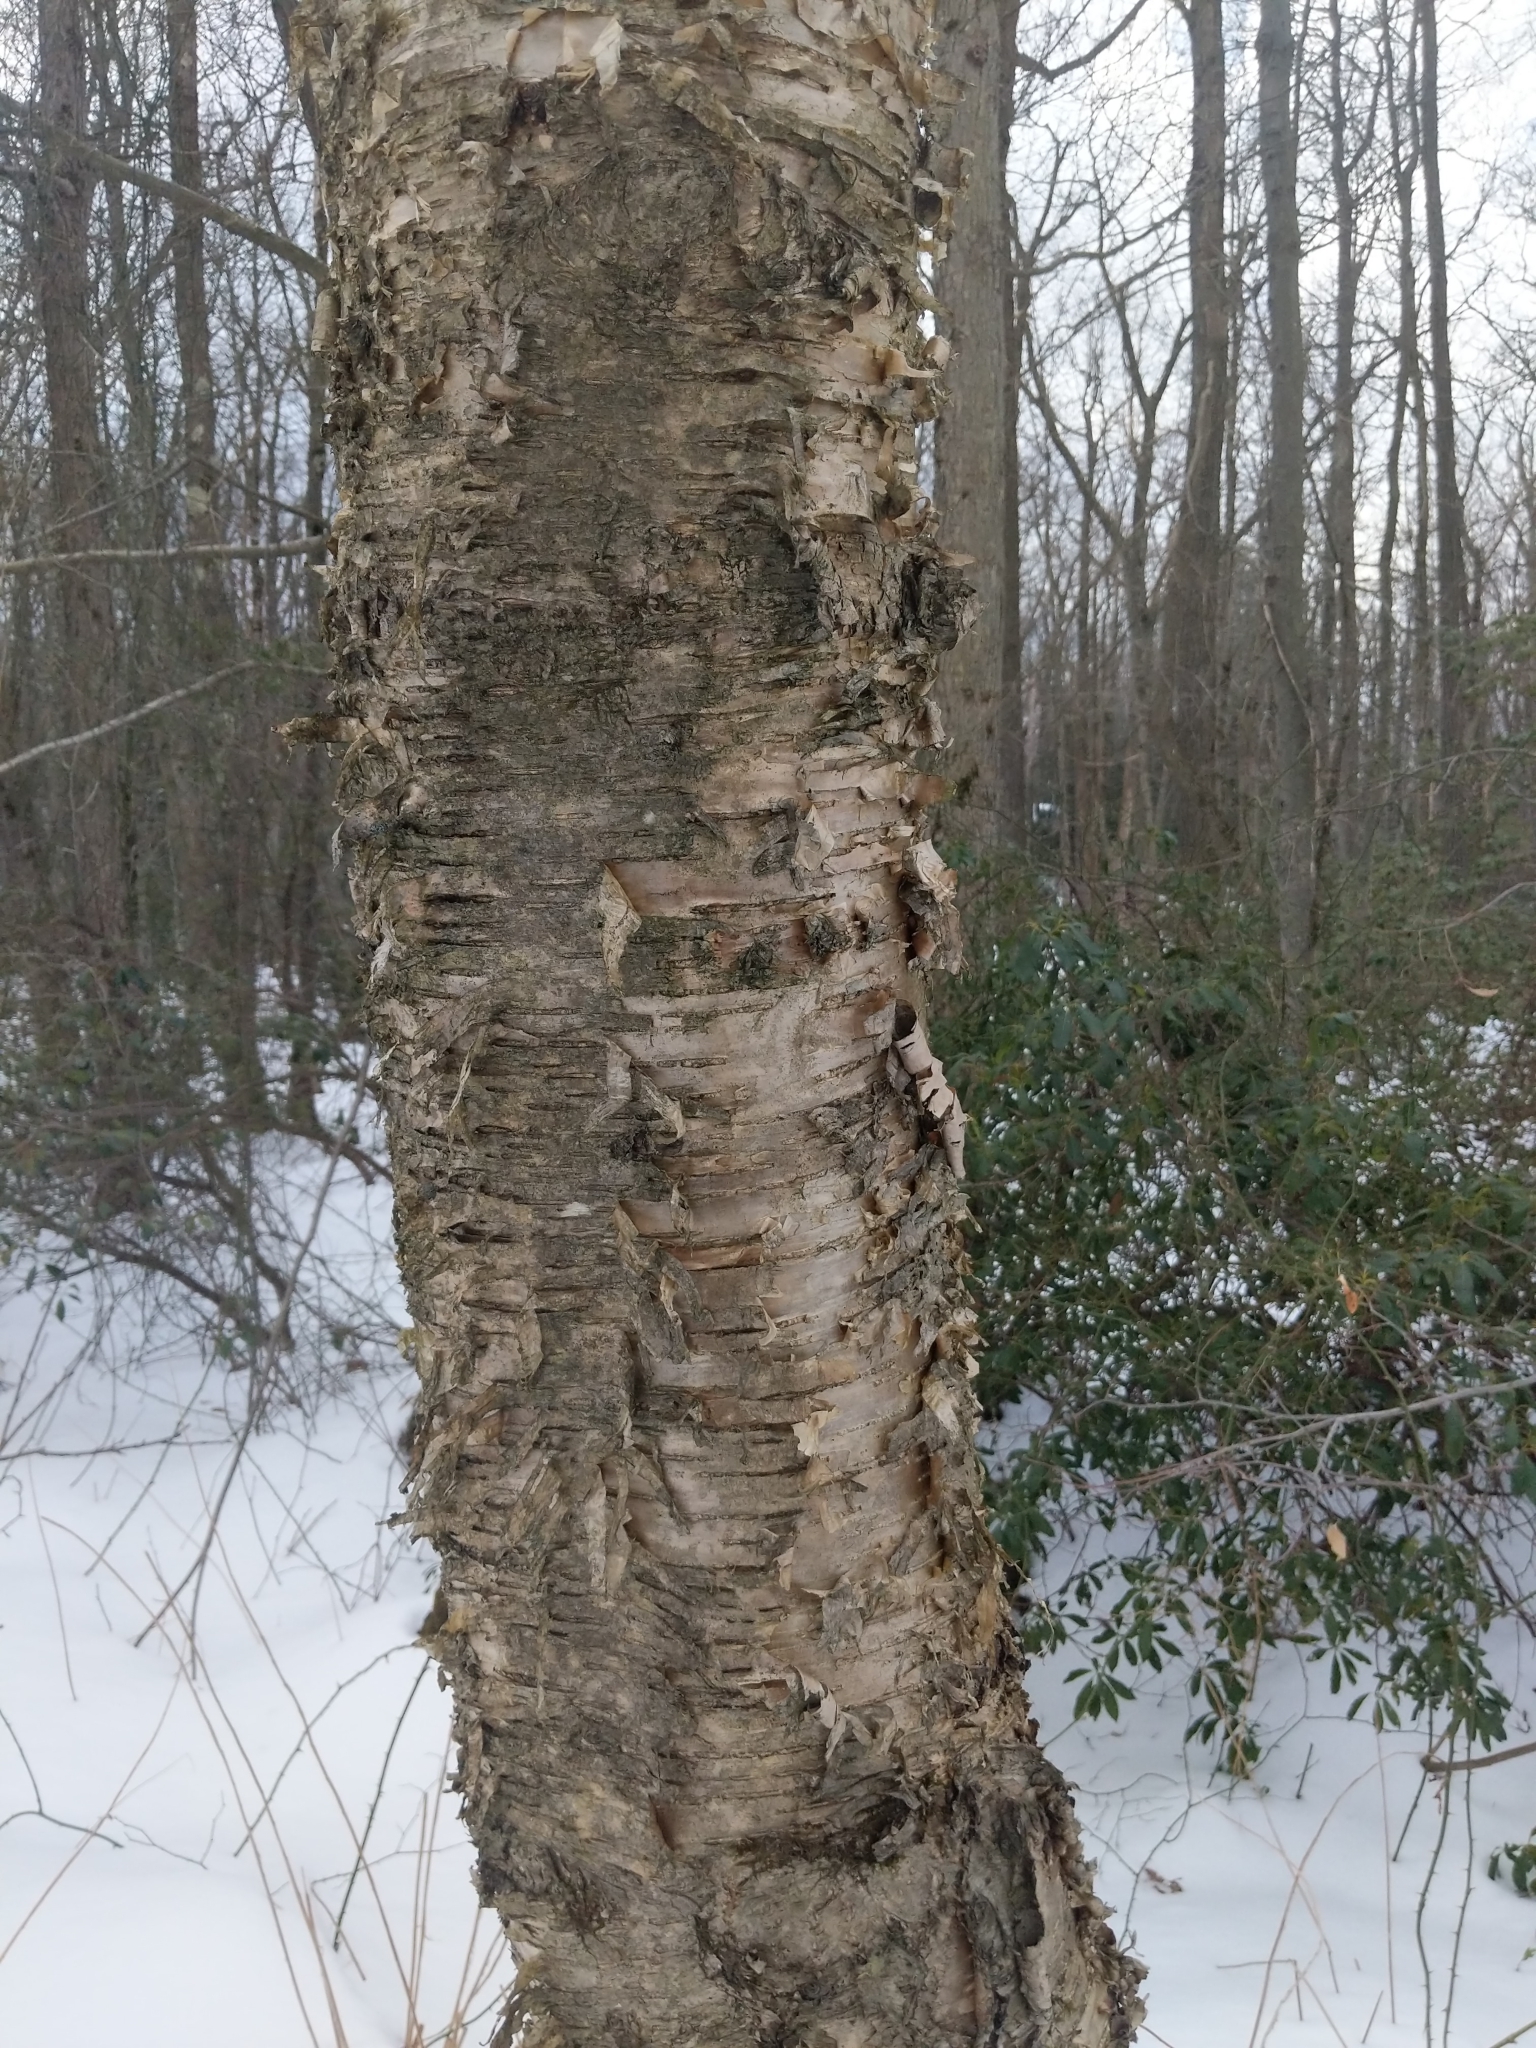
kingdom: Plantae
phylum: Tracheophyta
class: Magnoliopsida
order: Fagales
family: Betulaceae
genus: Betula
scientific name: Betula alleghaniensis
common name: Yellow birch
